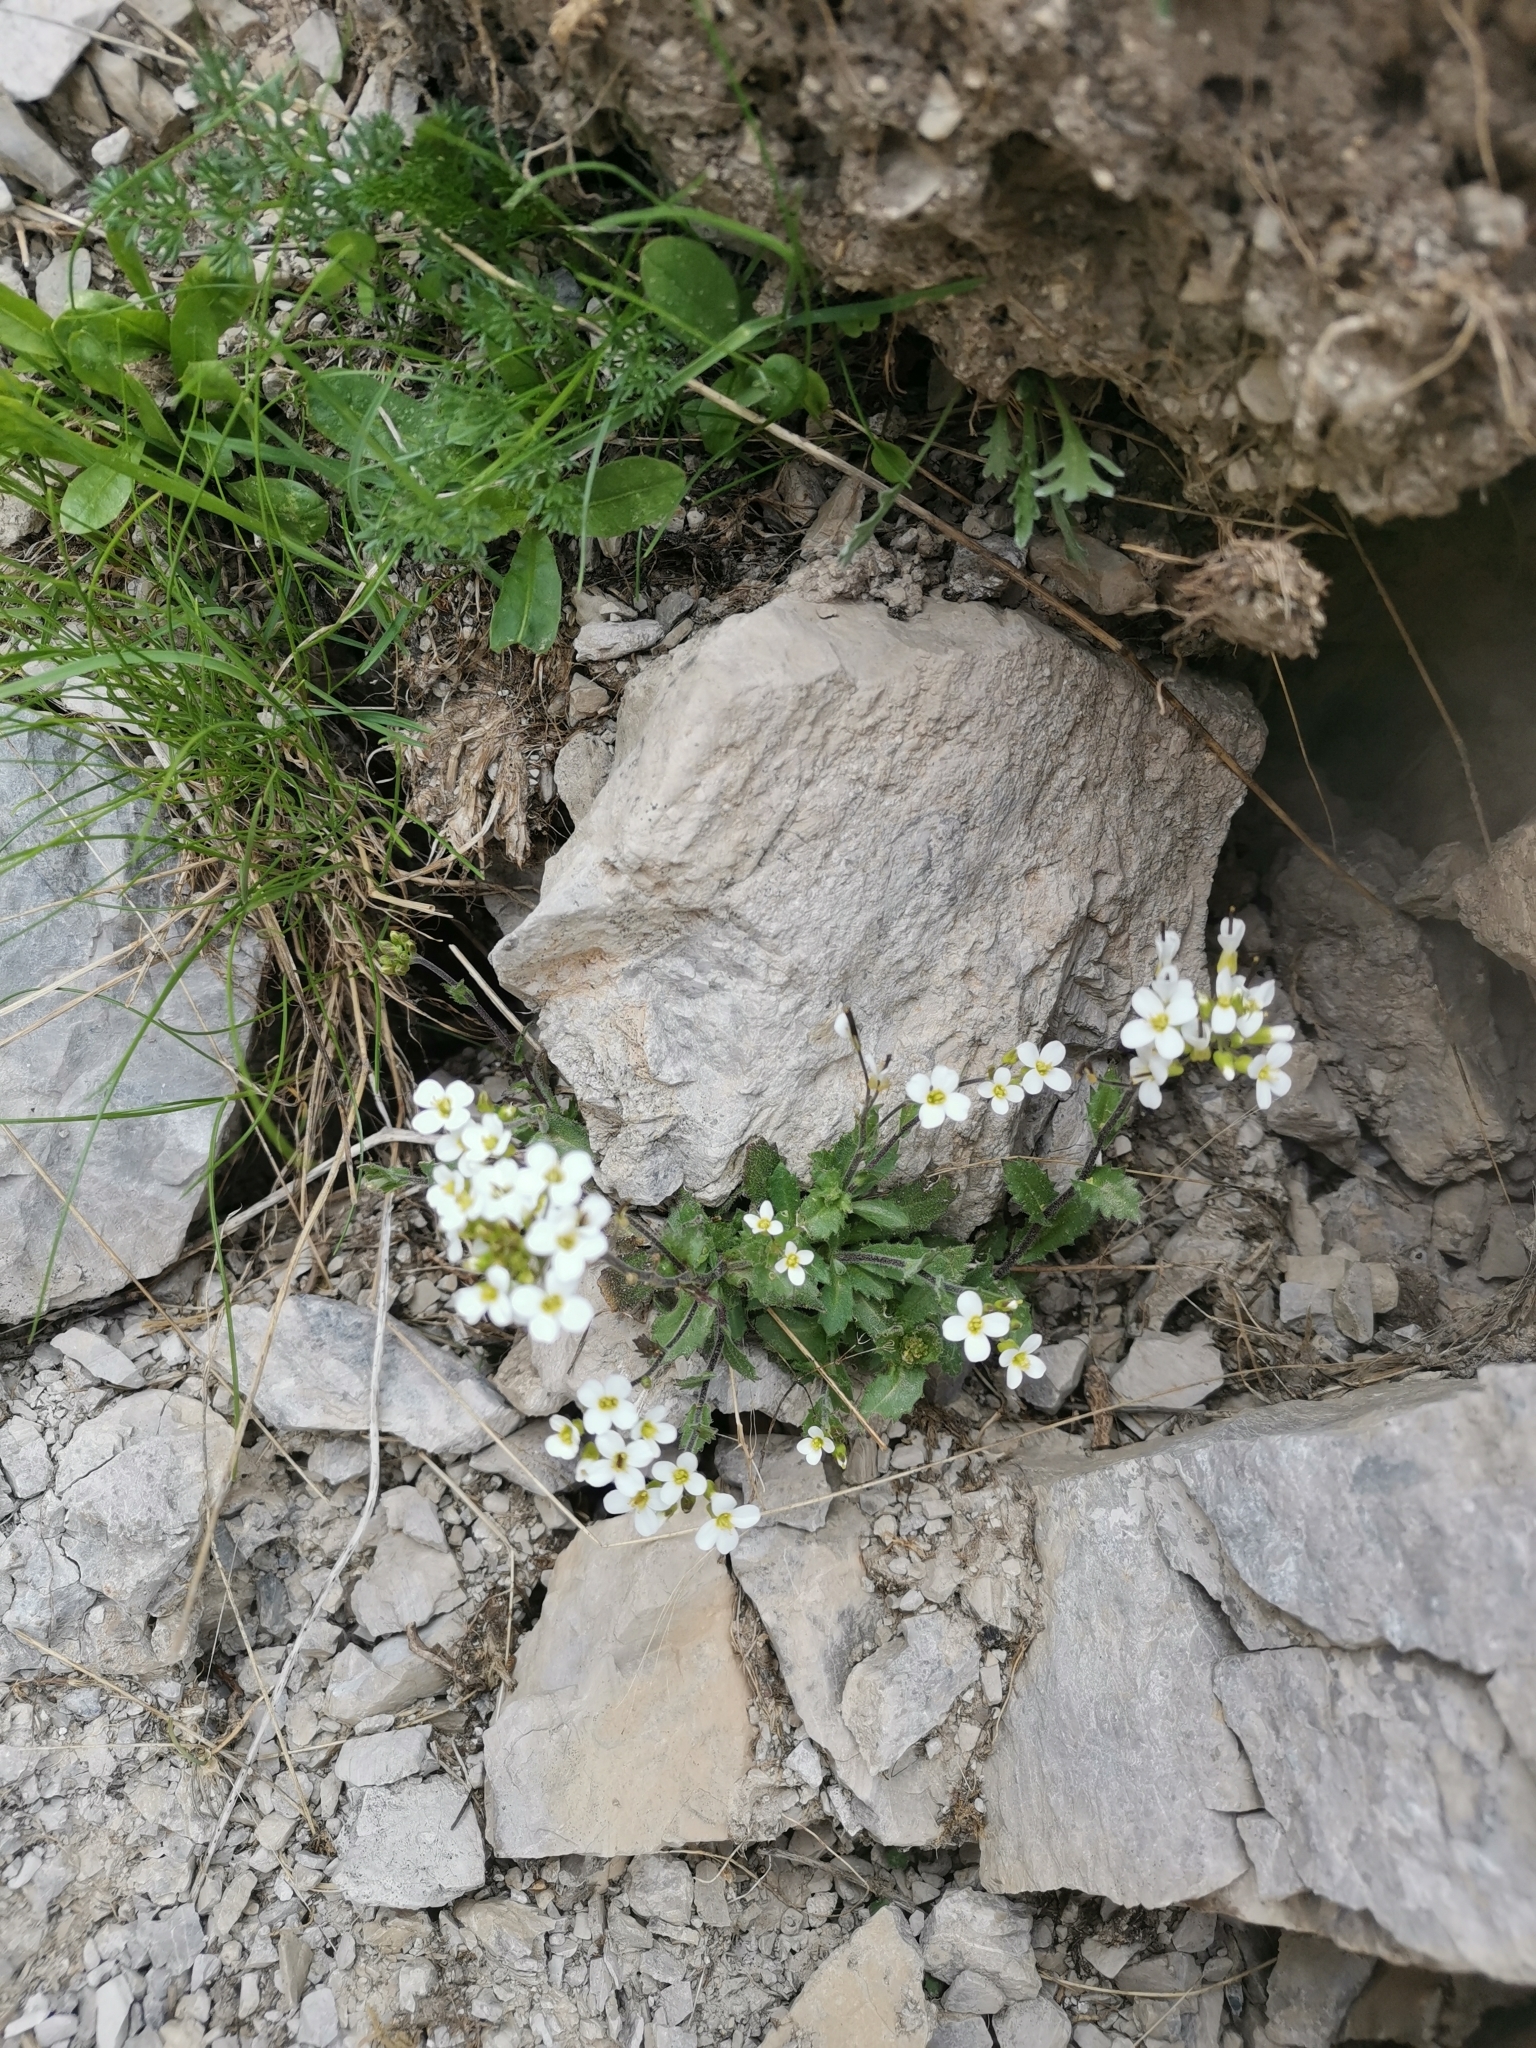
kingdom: Plantae
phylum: Tracheophyta
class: Magnoliopsida
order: Brassicales
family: Brassicaceae
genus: Arabis
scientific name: Arabis alpina
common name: Alpine rock-cress
